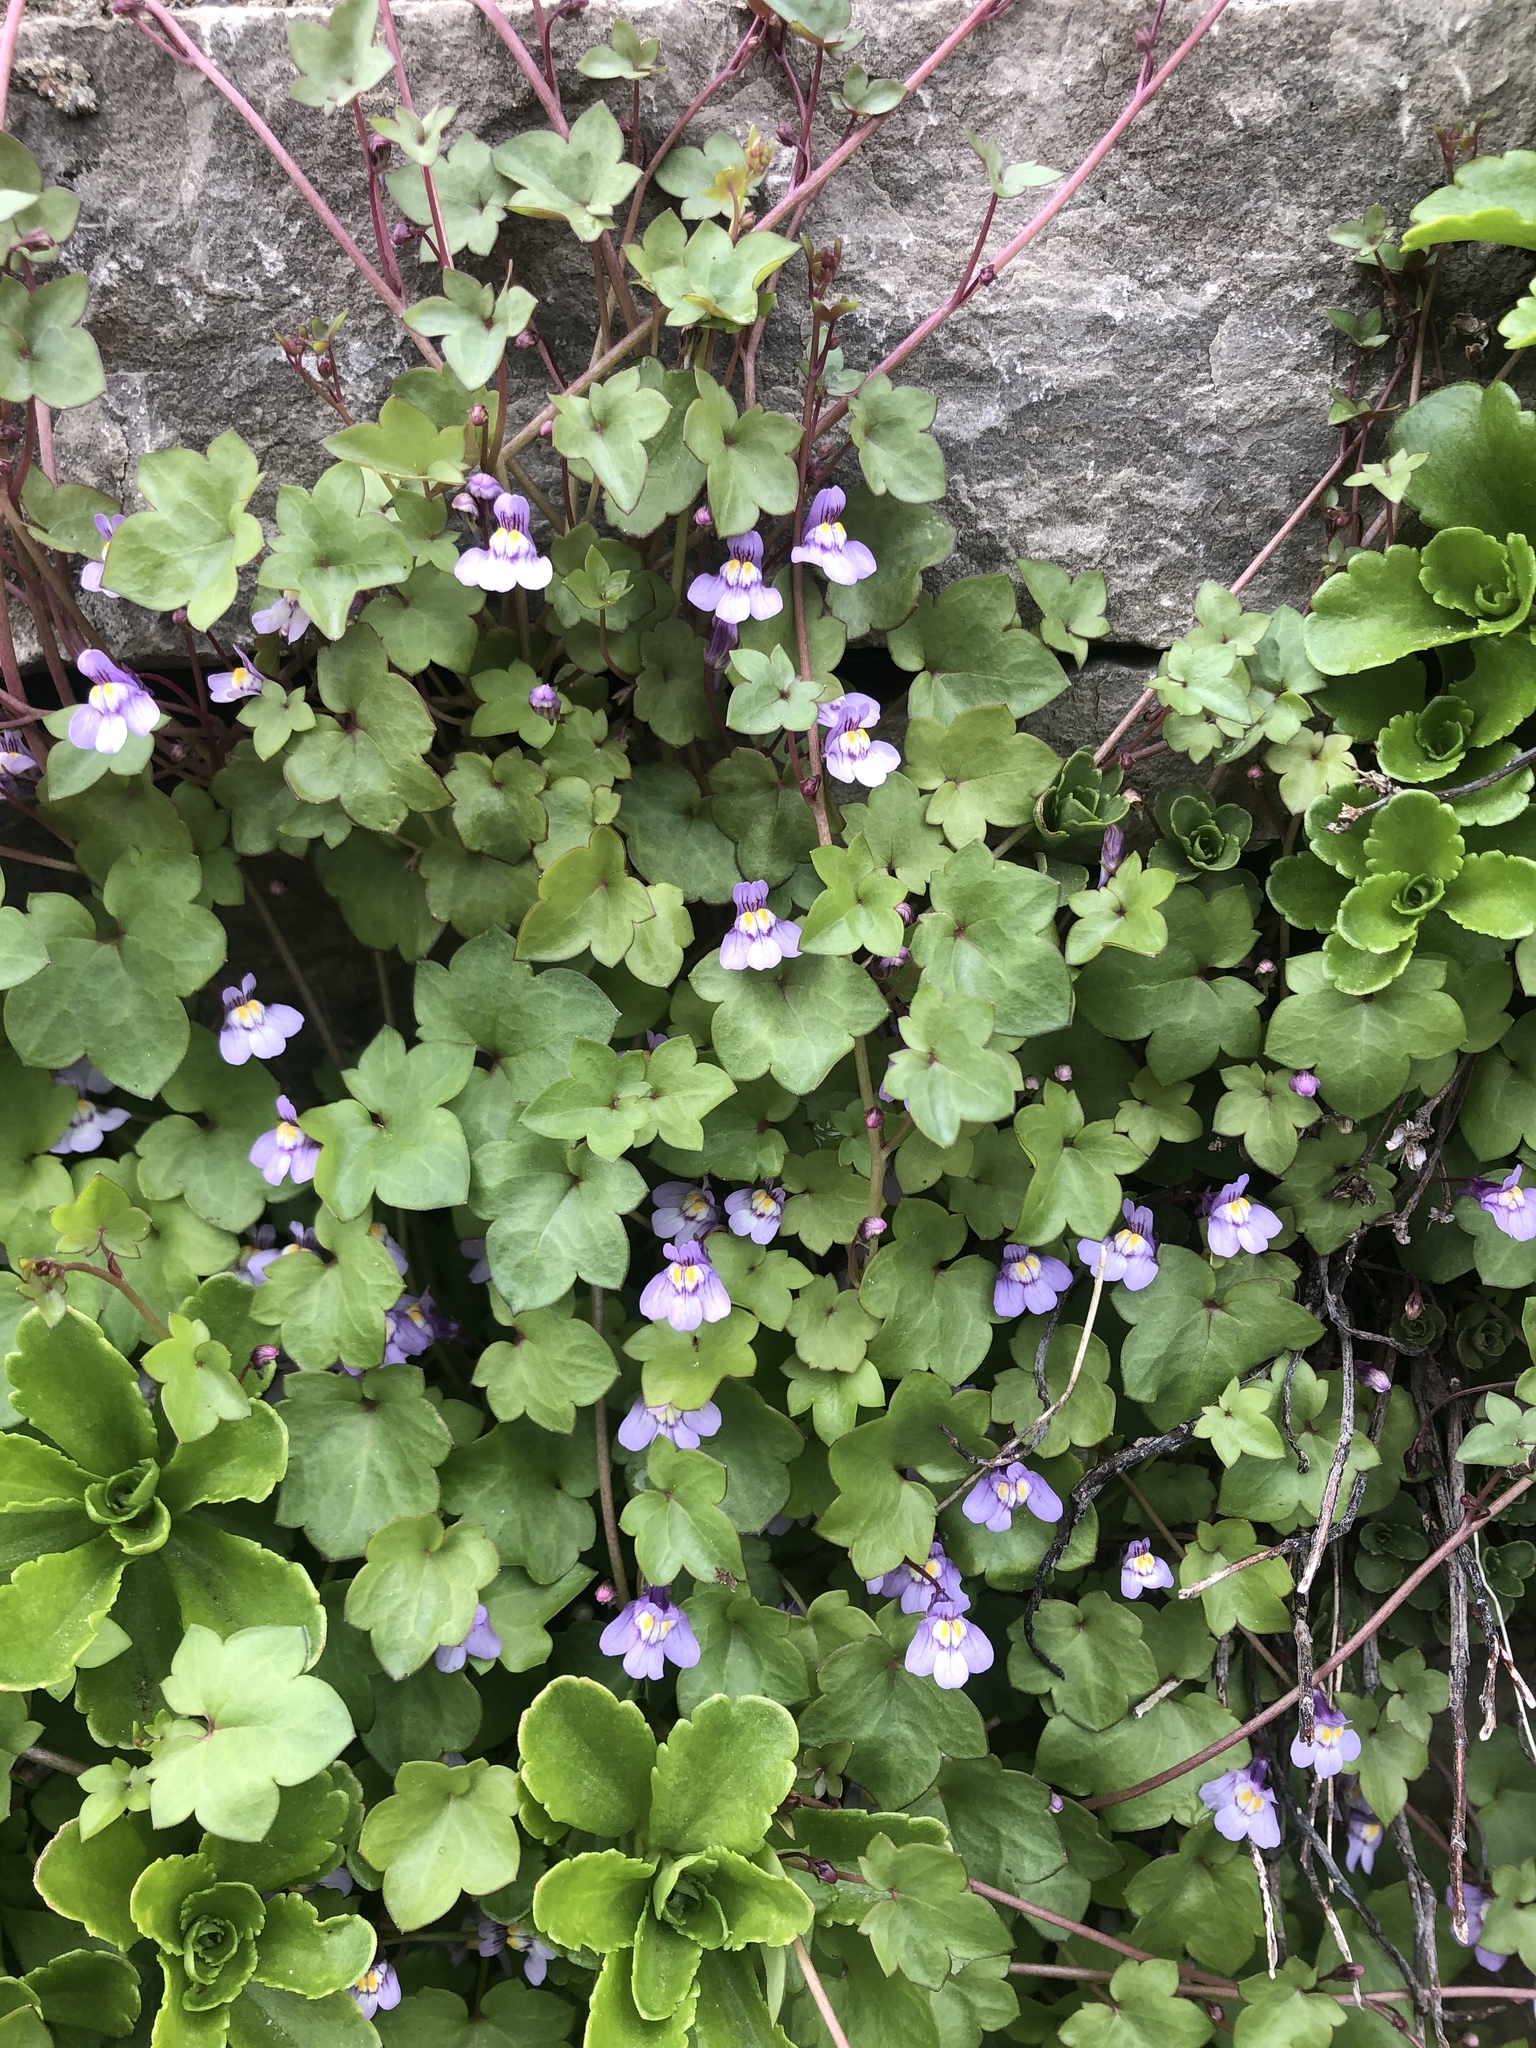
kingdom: Plantae
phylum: Tracheophyta
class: Magnoliopsida
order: Lamiales
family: Plantaginaceae
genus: Cymbalaria
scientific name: Cymbalaria muralis
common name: Ivy-leaved toadflax
